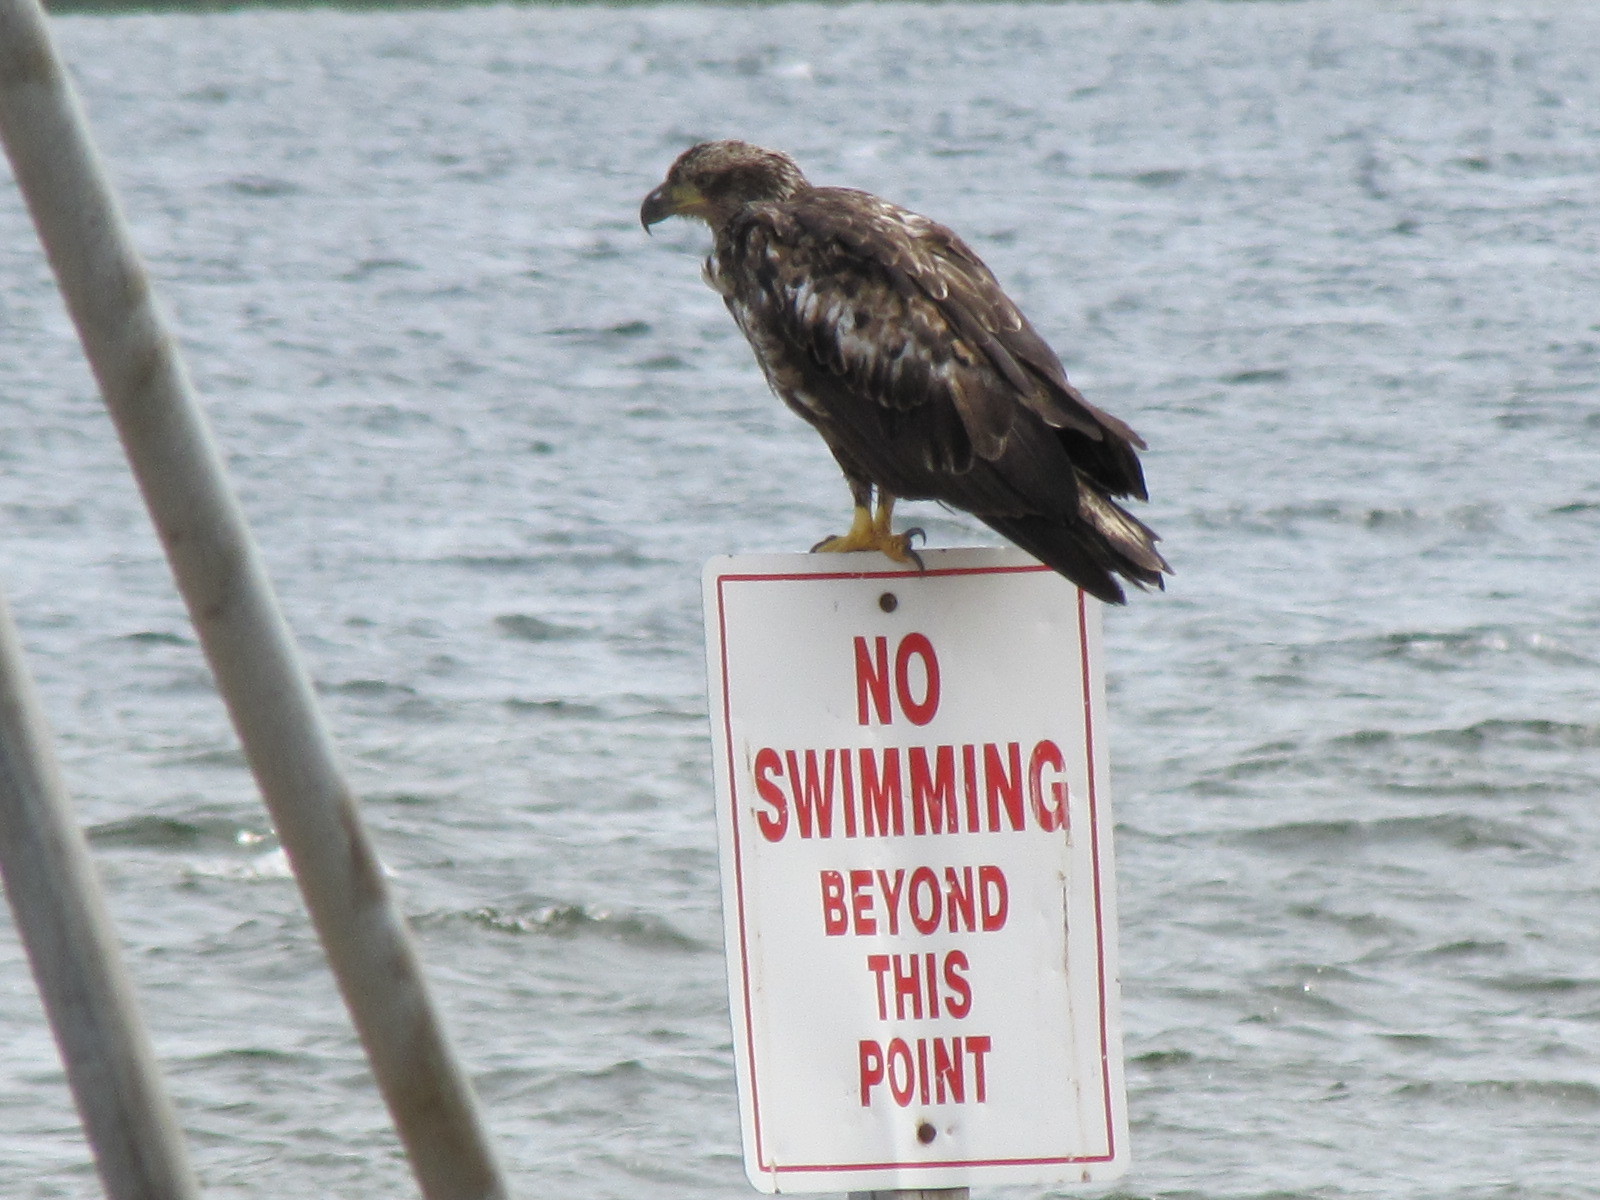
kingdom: Animalia
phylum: Chordata
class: Aves
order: Accipitriformes
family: Accipitridae
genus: Haliaeetus
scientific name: Haliaeetus leucocephalus
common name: Bald eagle
